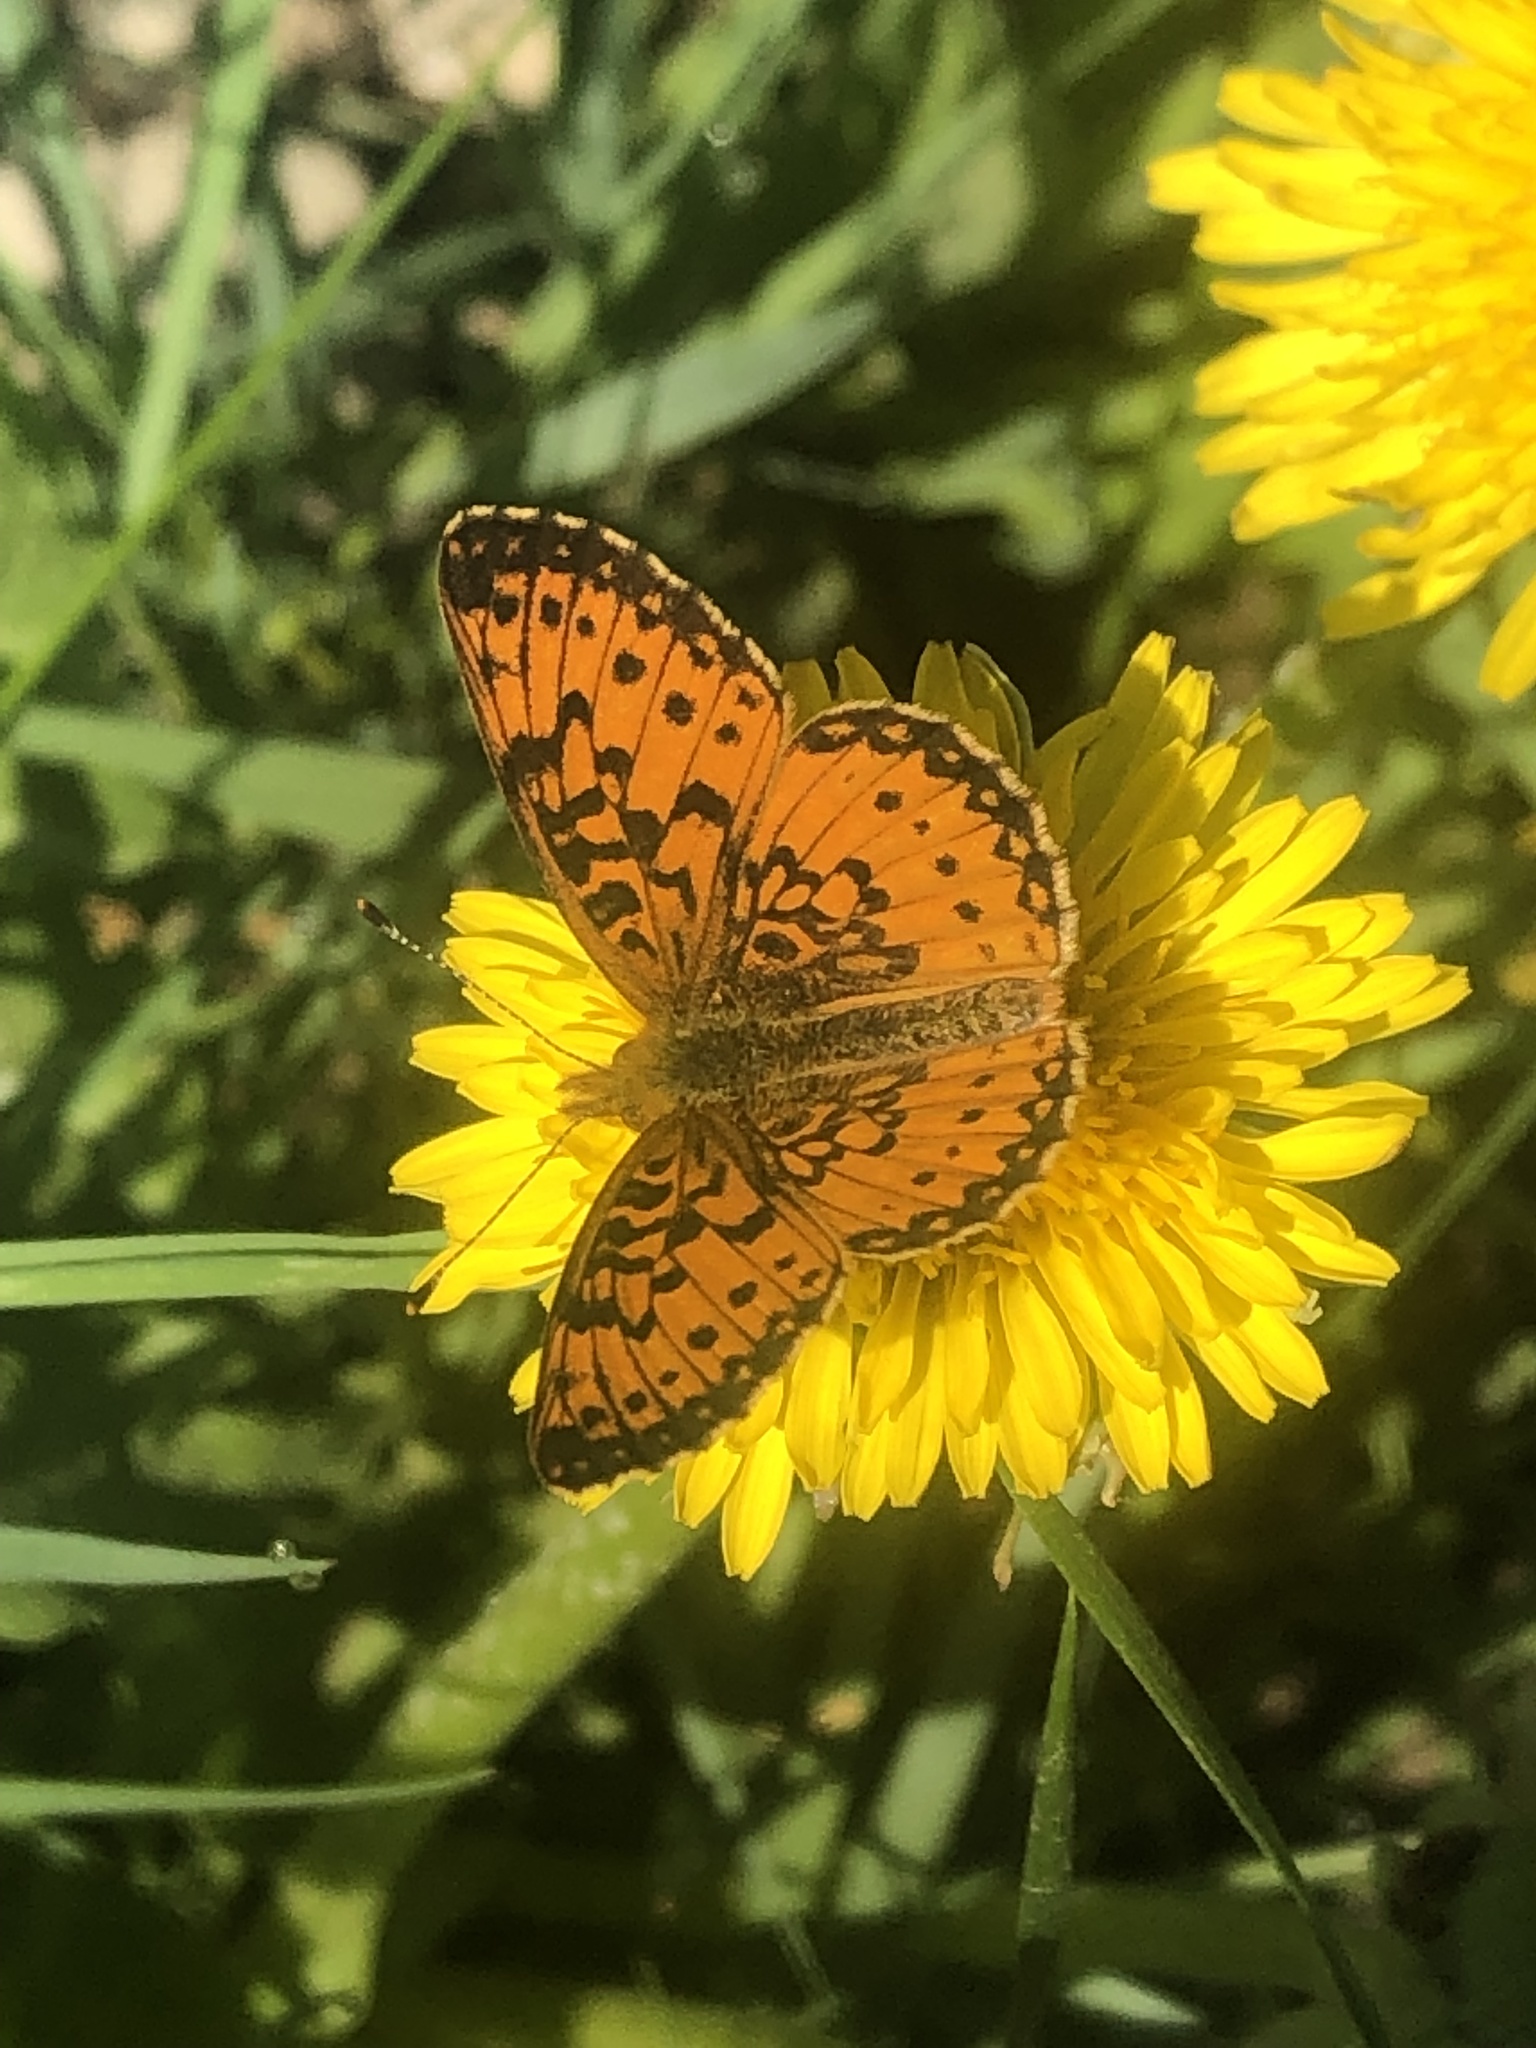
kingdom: Animalia
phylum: Arthropoda
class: Insecta
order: Lepidoptera
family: Nymphalidae
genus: Boloria
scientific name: Boloria
